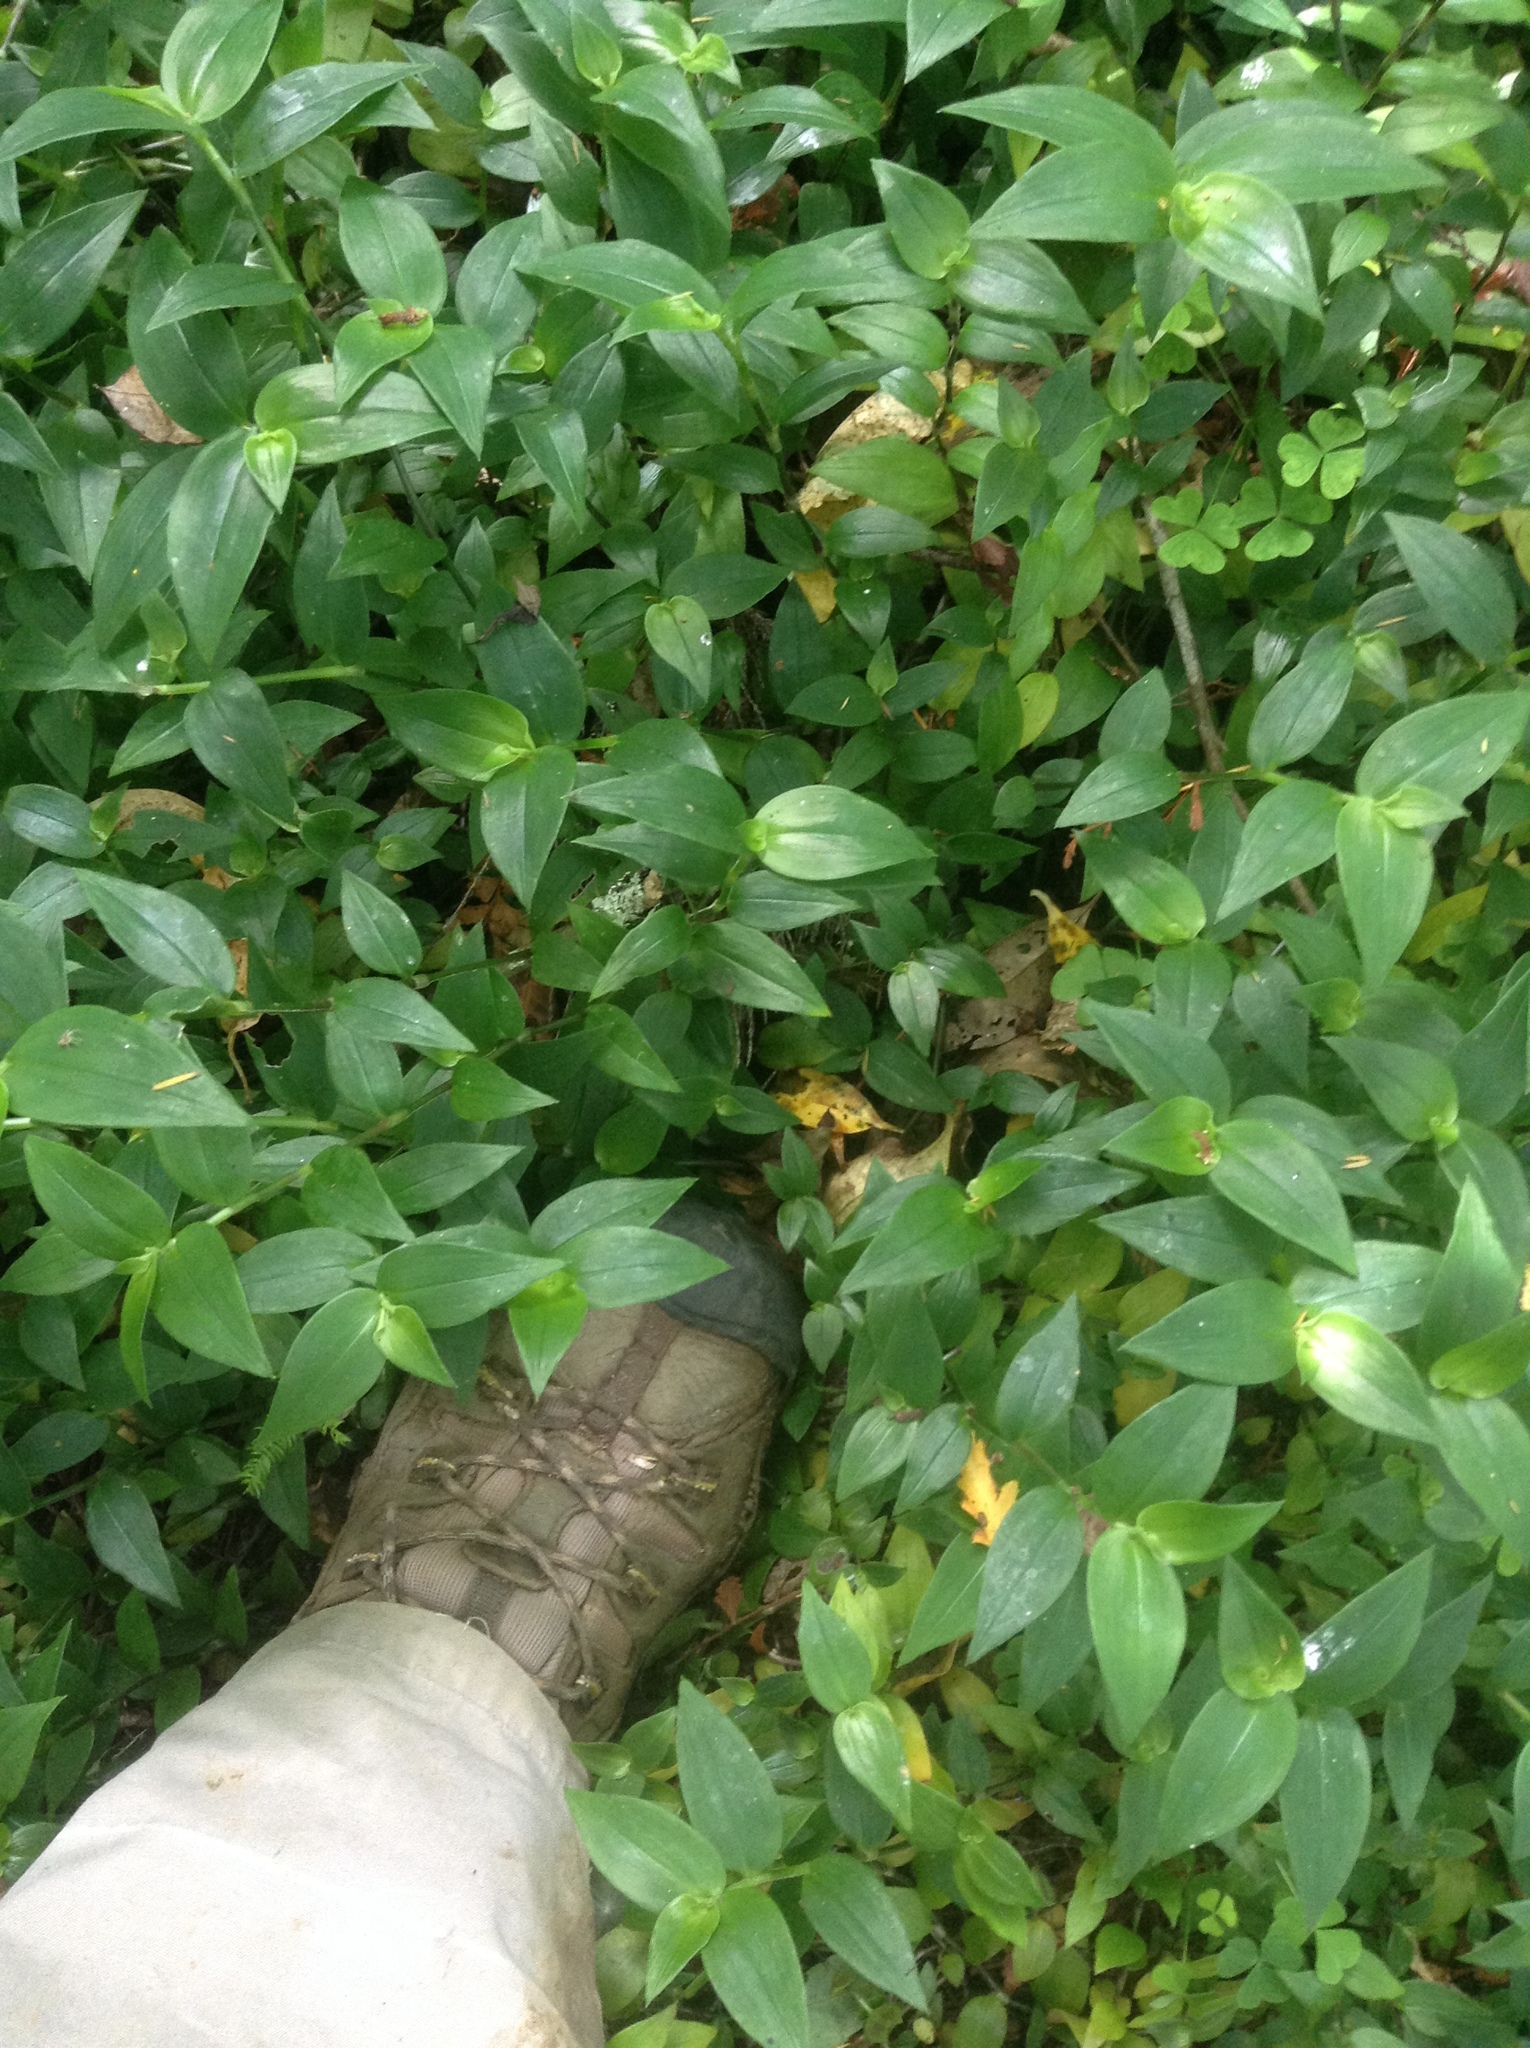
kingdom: Plantae
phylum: Tracheophyta
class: Liliopsida
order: Commelinales
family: Commelinaceae
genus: Tradescantia
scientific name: Tradescantia fluminensis
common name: Wandering-jew
